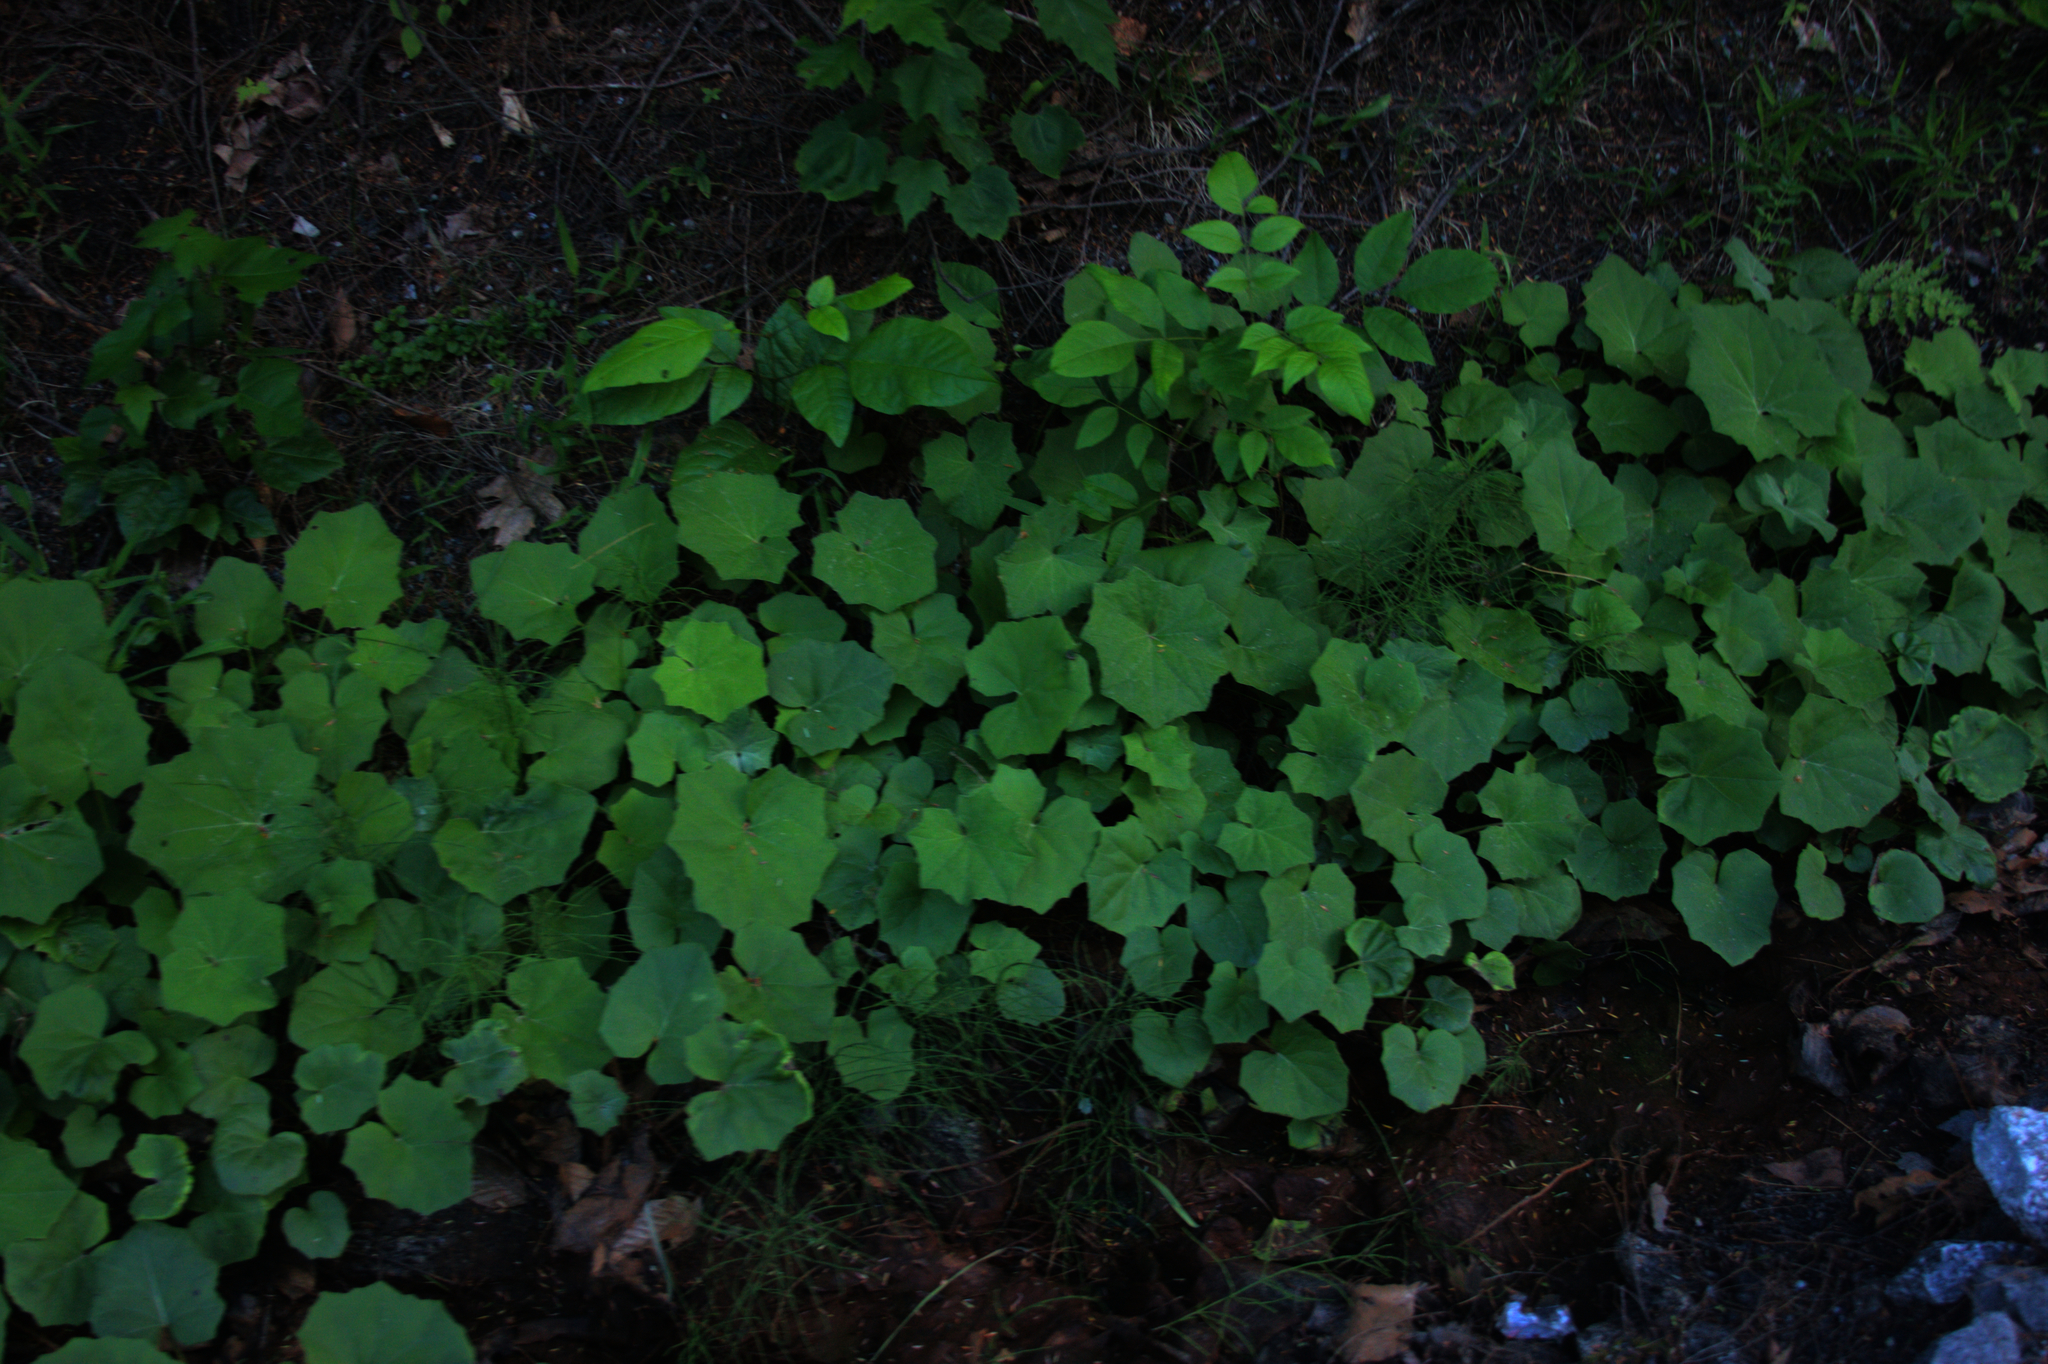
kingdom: Plantae
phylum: Tracheophyta
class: Magnoliopsida
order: Asterales
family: Asteraceae
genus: Tussilago
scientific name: Tussilago farfara
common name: Coltsfoot
